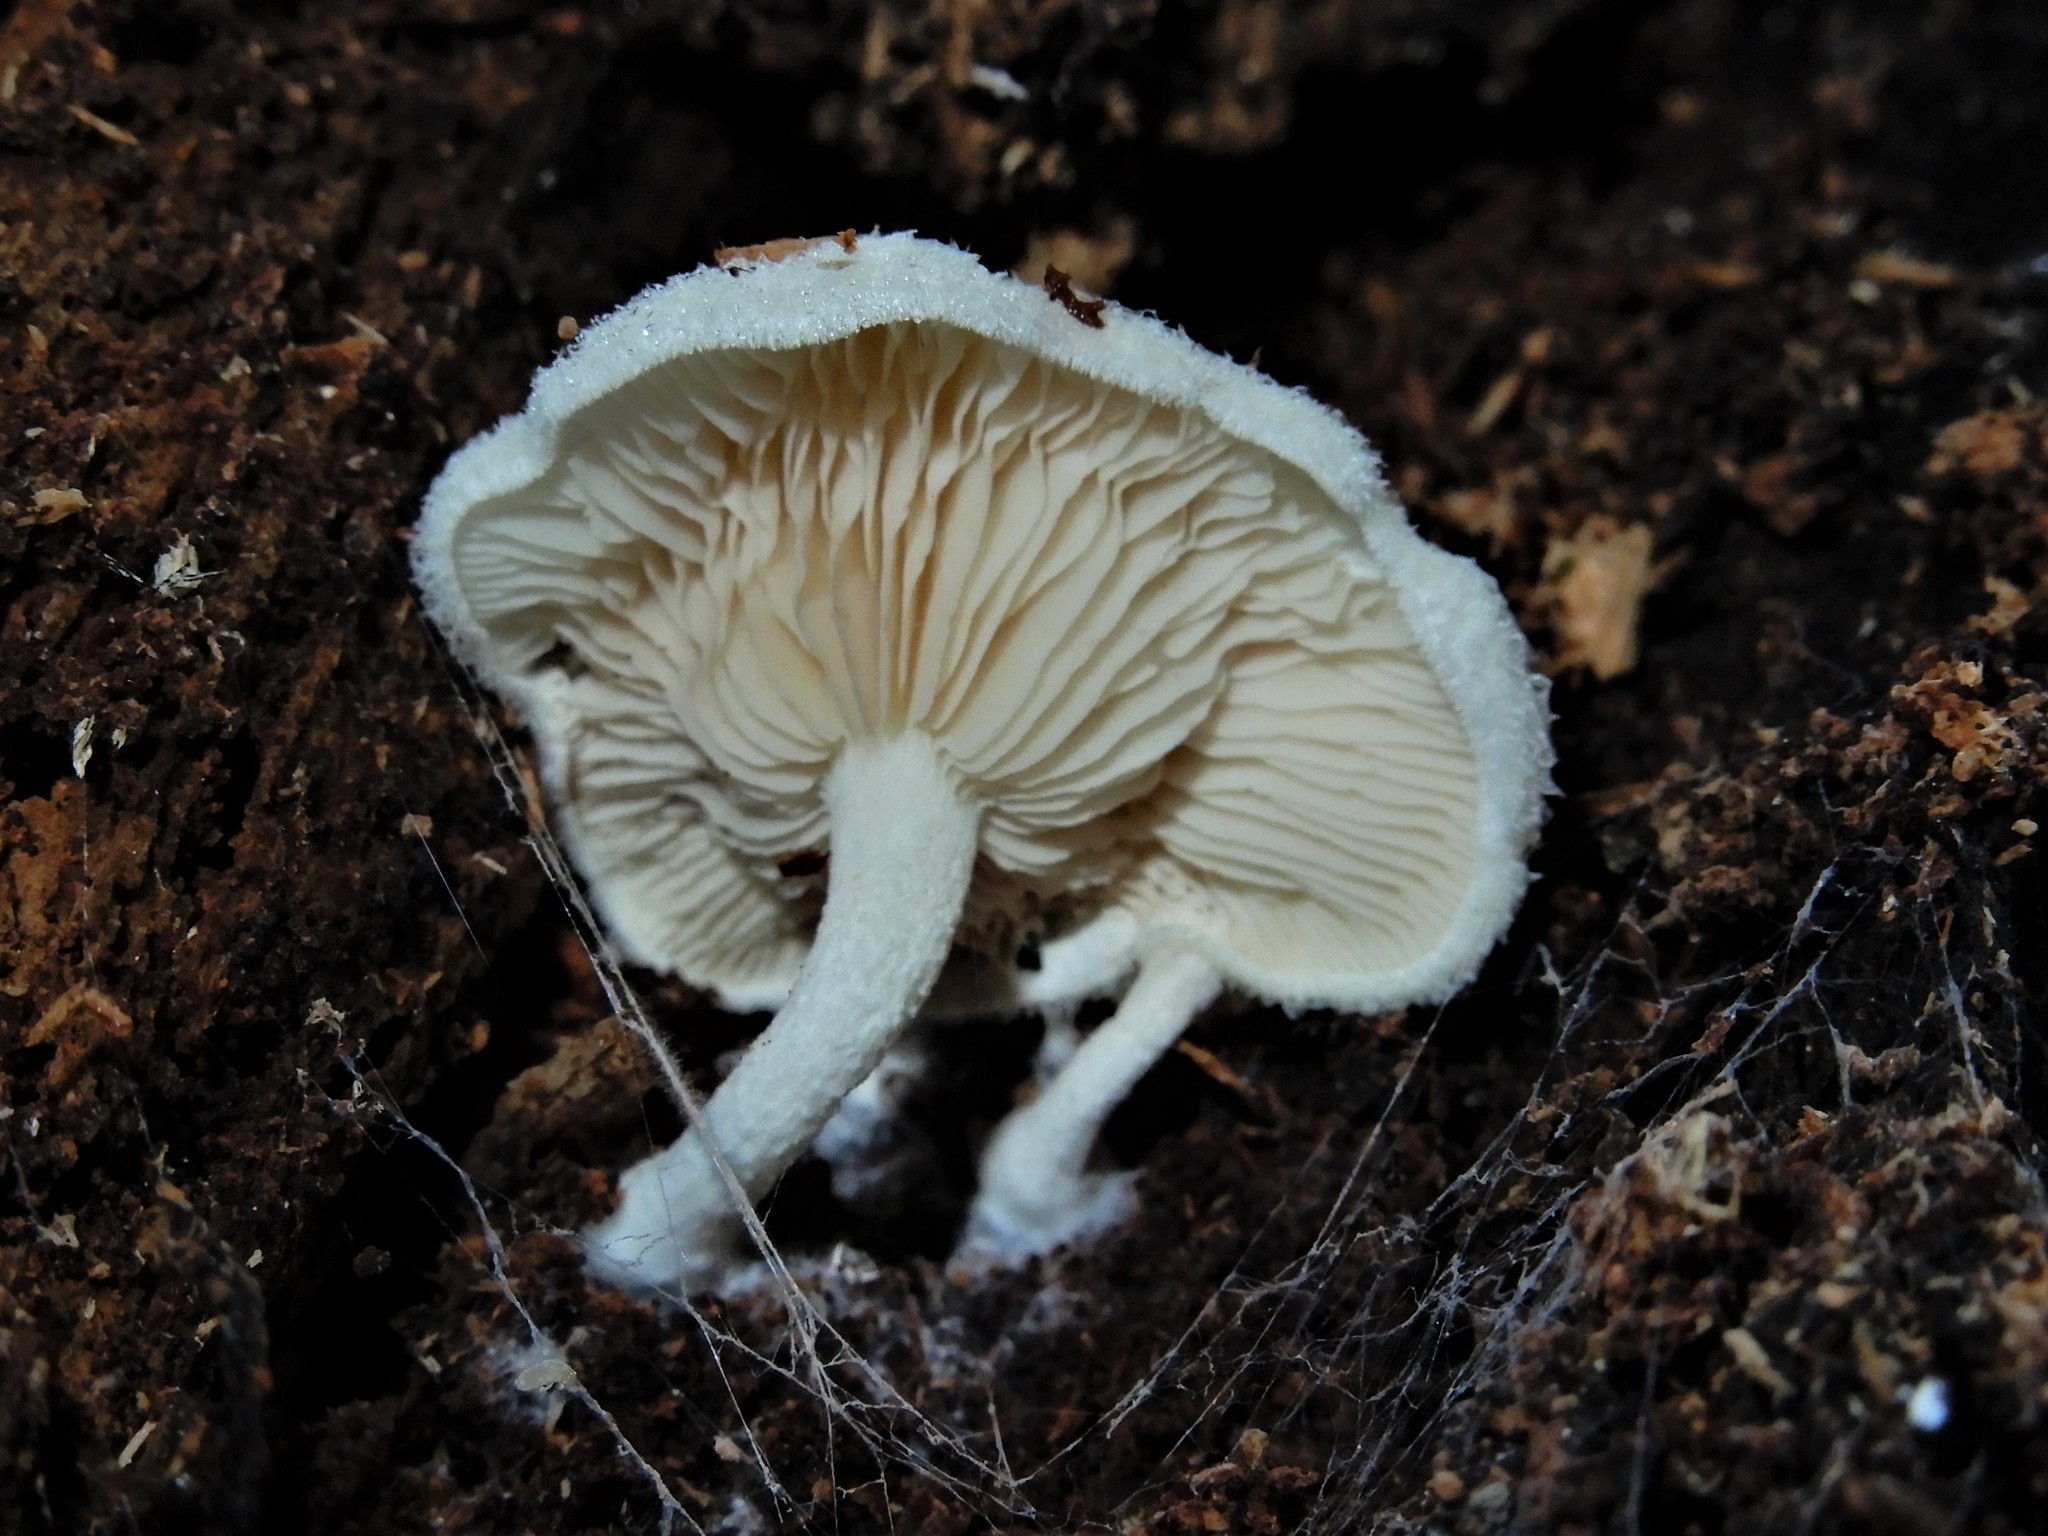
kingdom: Fungi
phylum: Basidiomycota
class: Agaricomycetes
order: Agaricales
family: Entolomataceae
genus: Clitopilus
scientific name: Clitopilus
